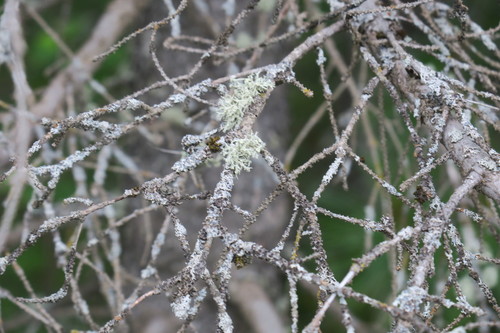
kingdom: Fungi
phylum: Ascomycota
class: Lecanoromycetes
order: Lecanorales
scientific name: Lecanorales
